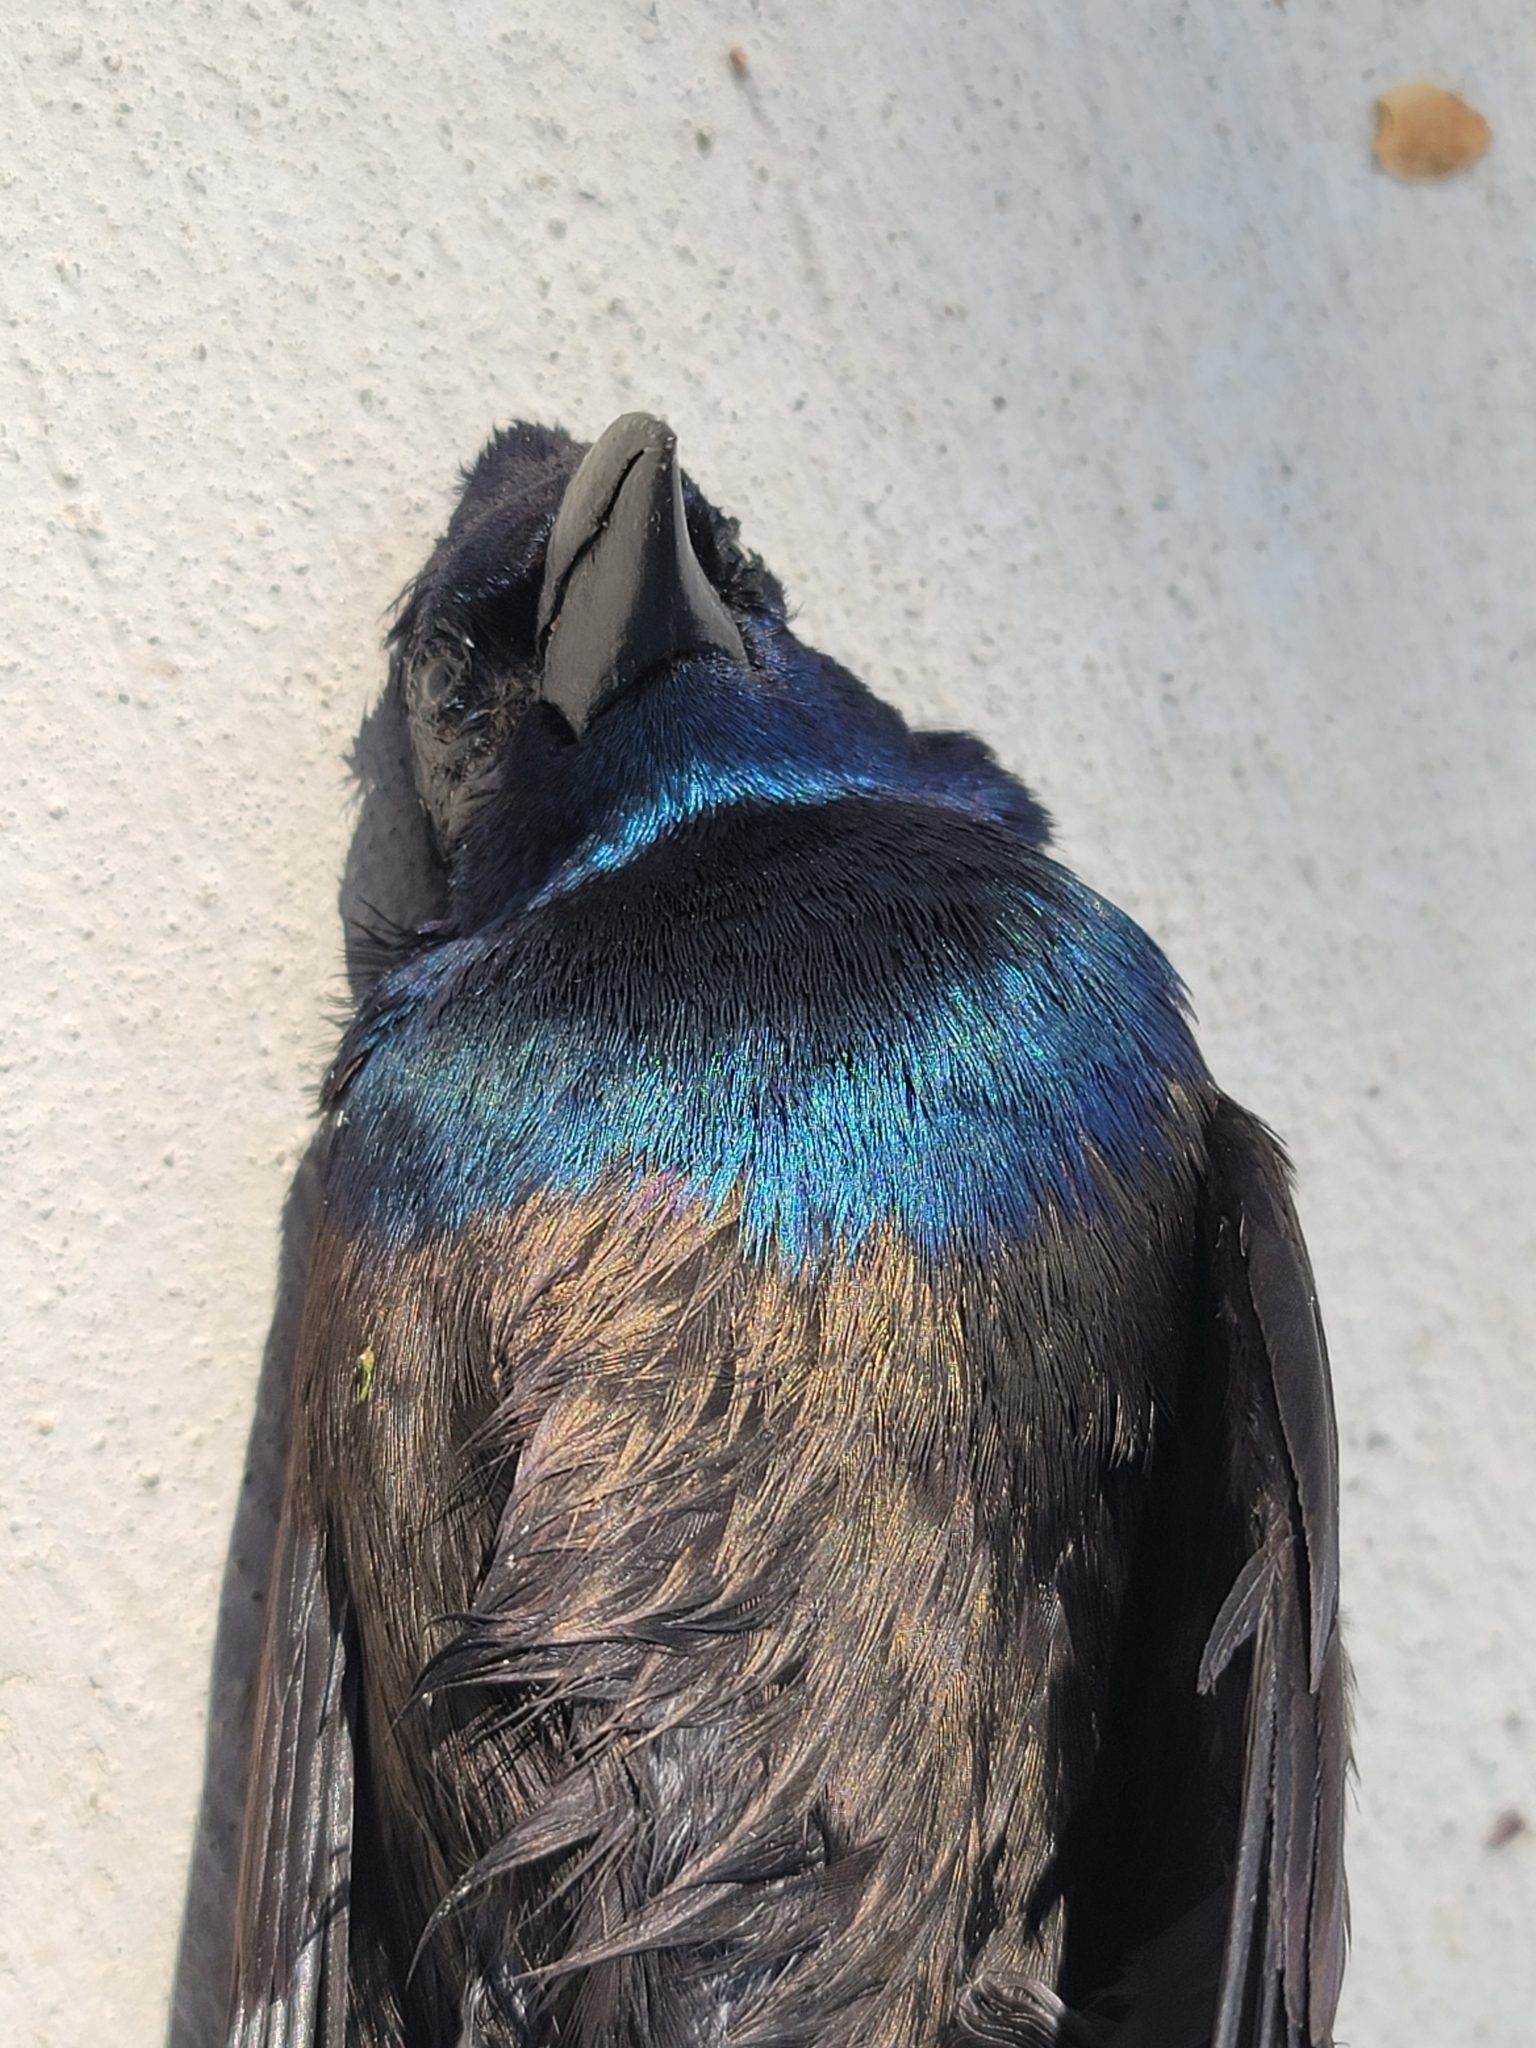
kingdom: Animalia
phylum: Chordata
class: Aves
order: Passeriformes
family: Icteridae
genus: Quiscalus
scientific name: Quiscalus quiscula
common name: Common grackle
